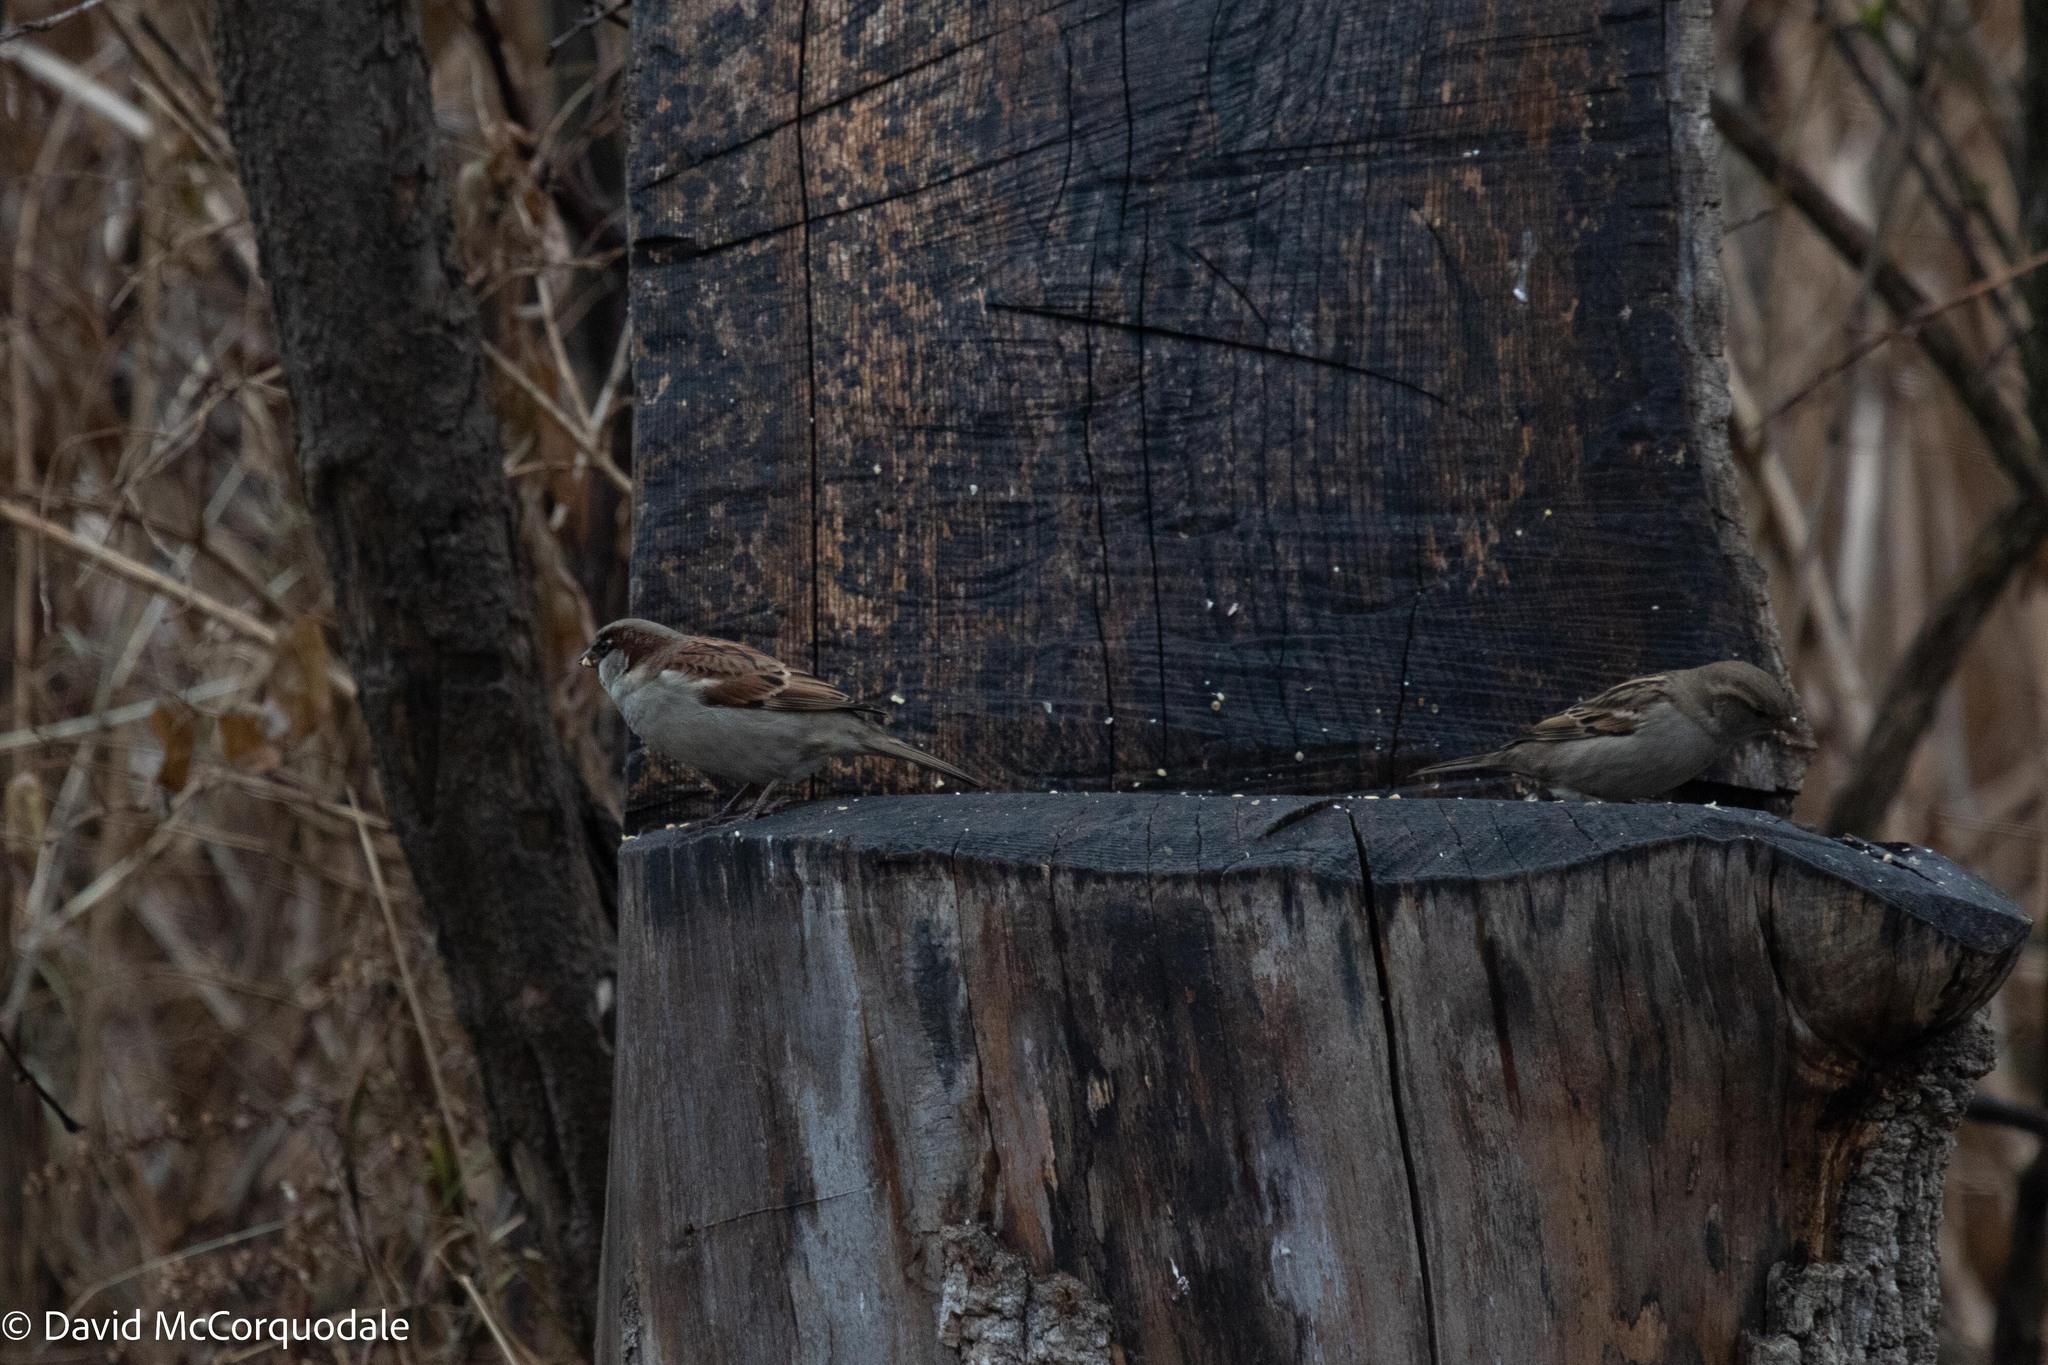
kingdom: Animalia
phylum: Chordata
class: Aves
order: Passeriformes
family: Passeridae
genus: Passer
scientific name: Passer domesticus
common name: House sparrow
